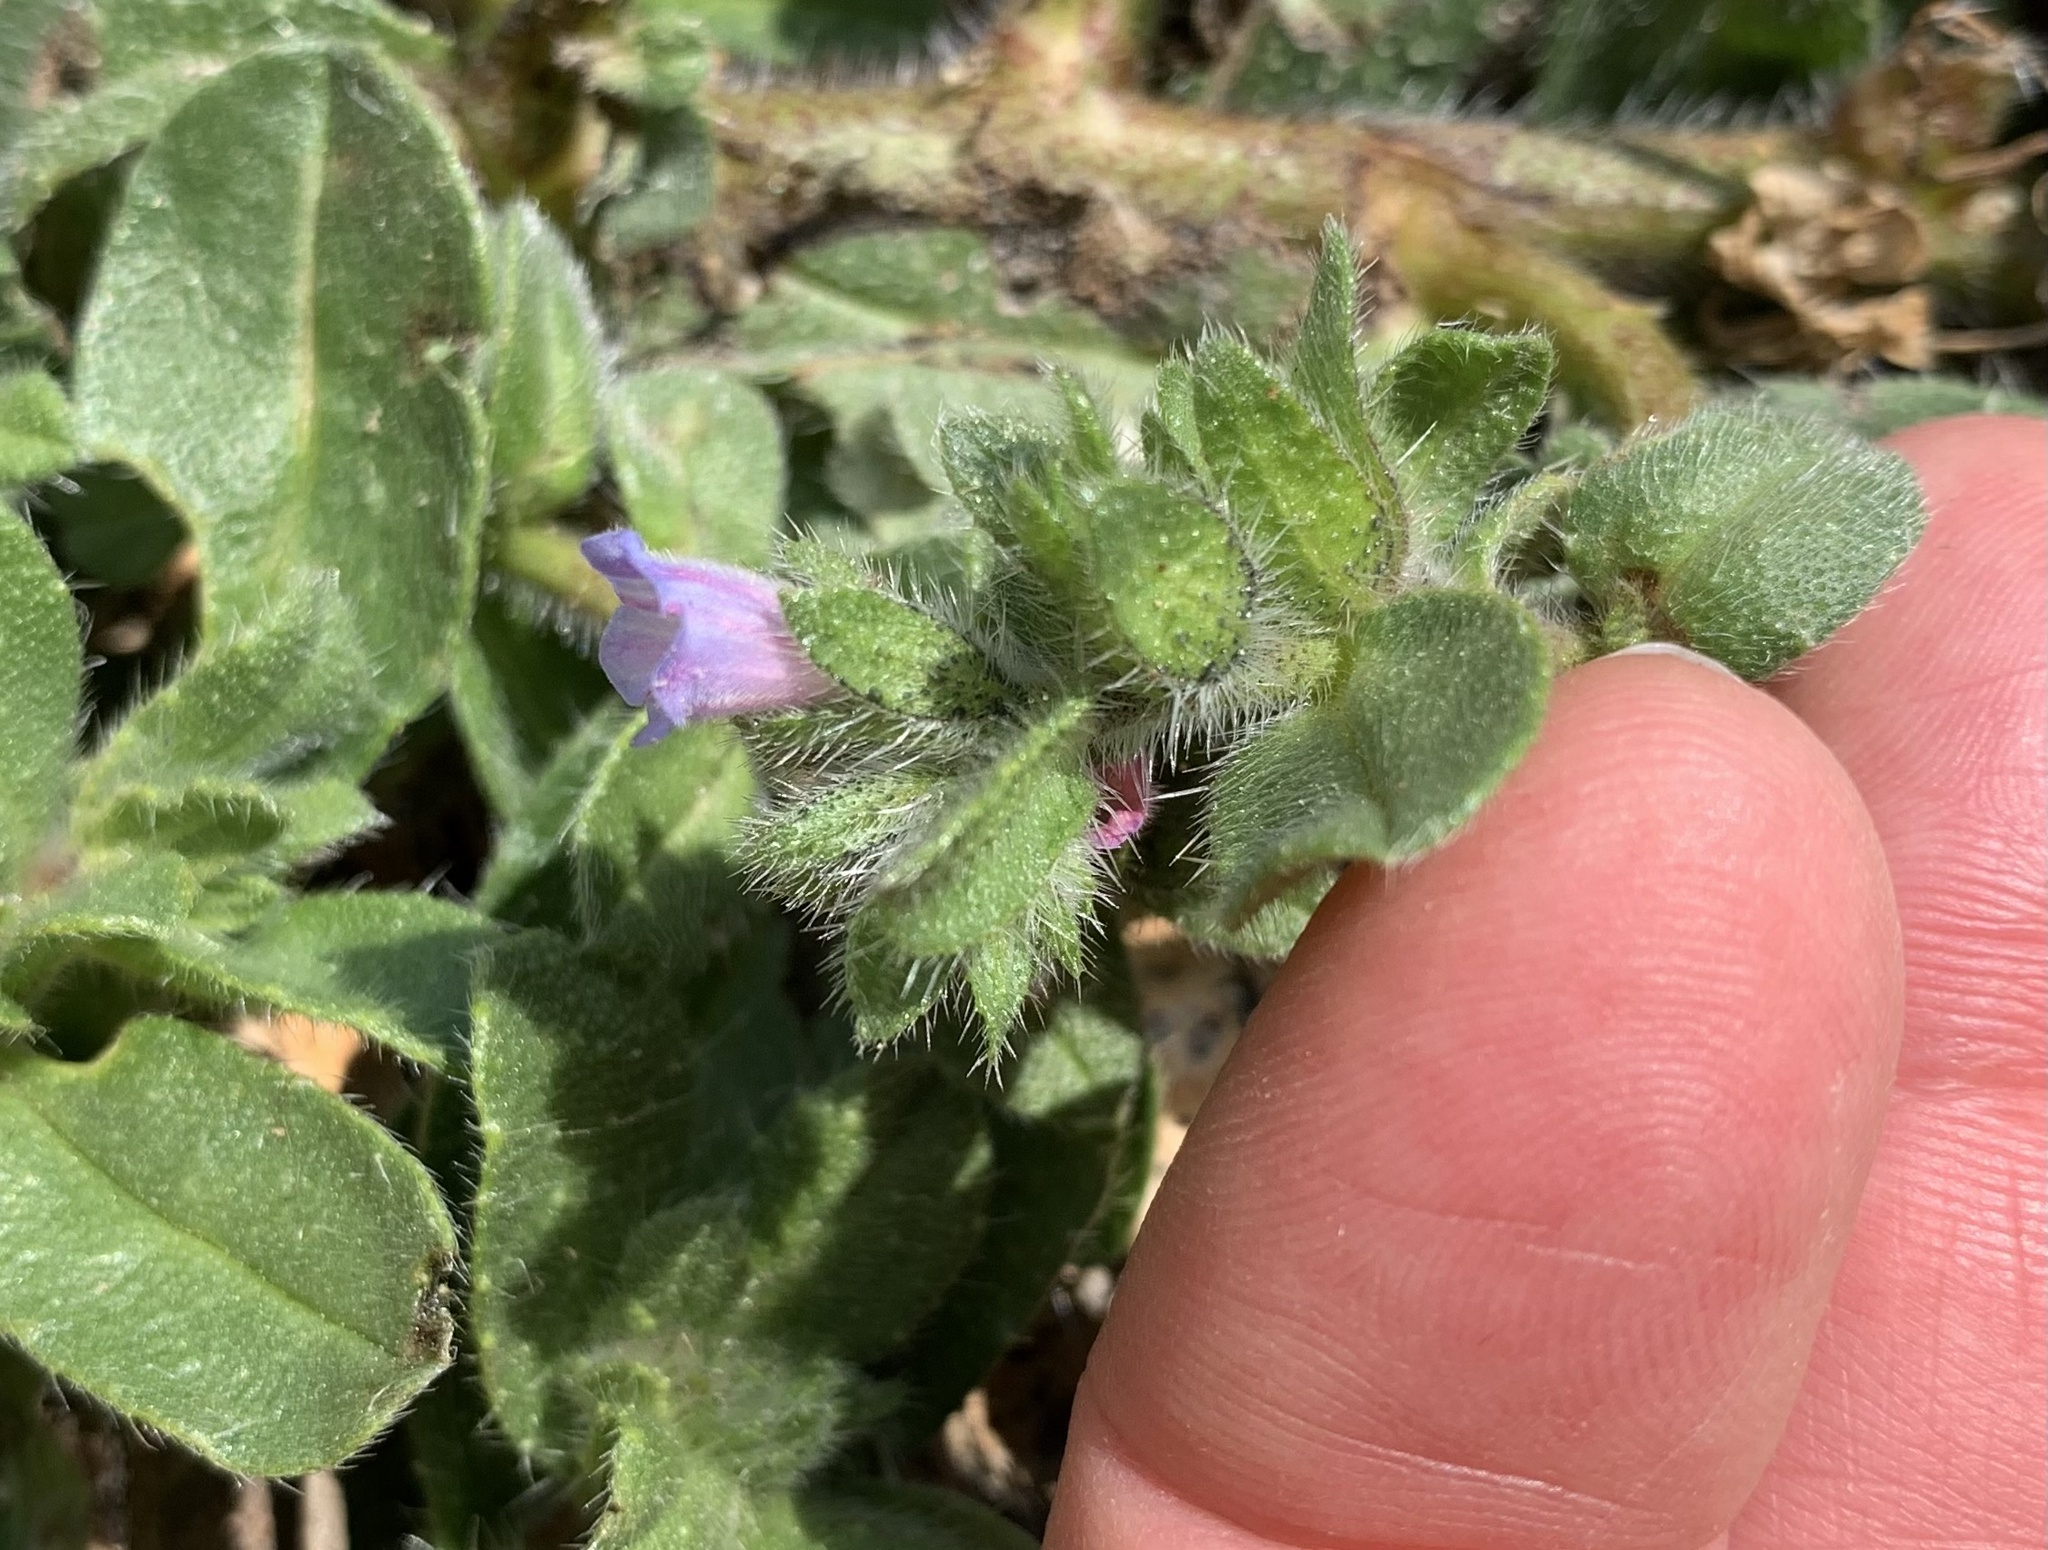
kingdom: Plantae
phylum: Tracheophyta
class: Magnoliopsida
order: Boraginales
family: Boraginaceae
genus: Echium
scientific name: Echium parviflorum
